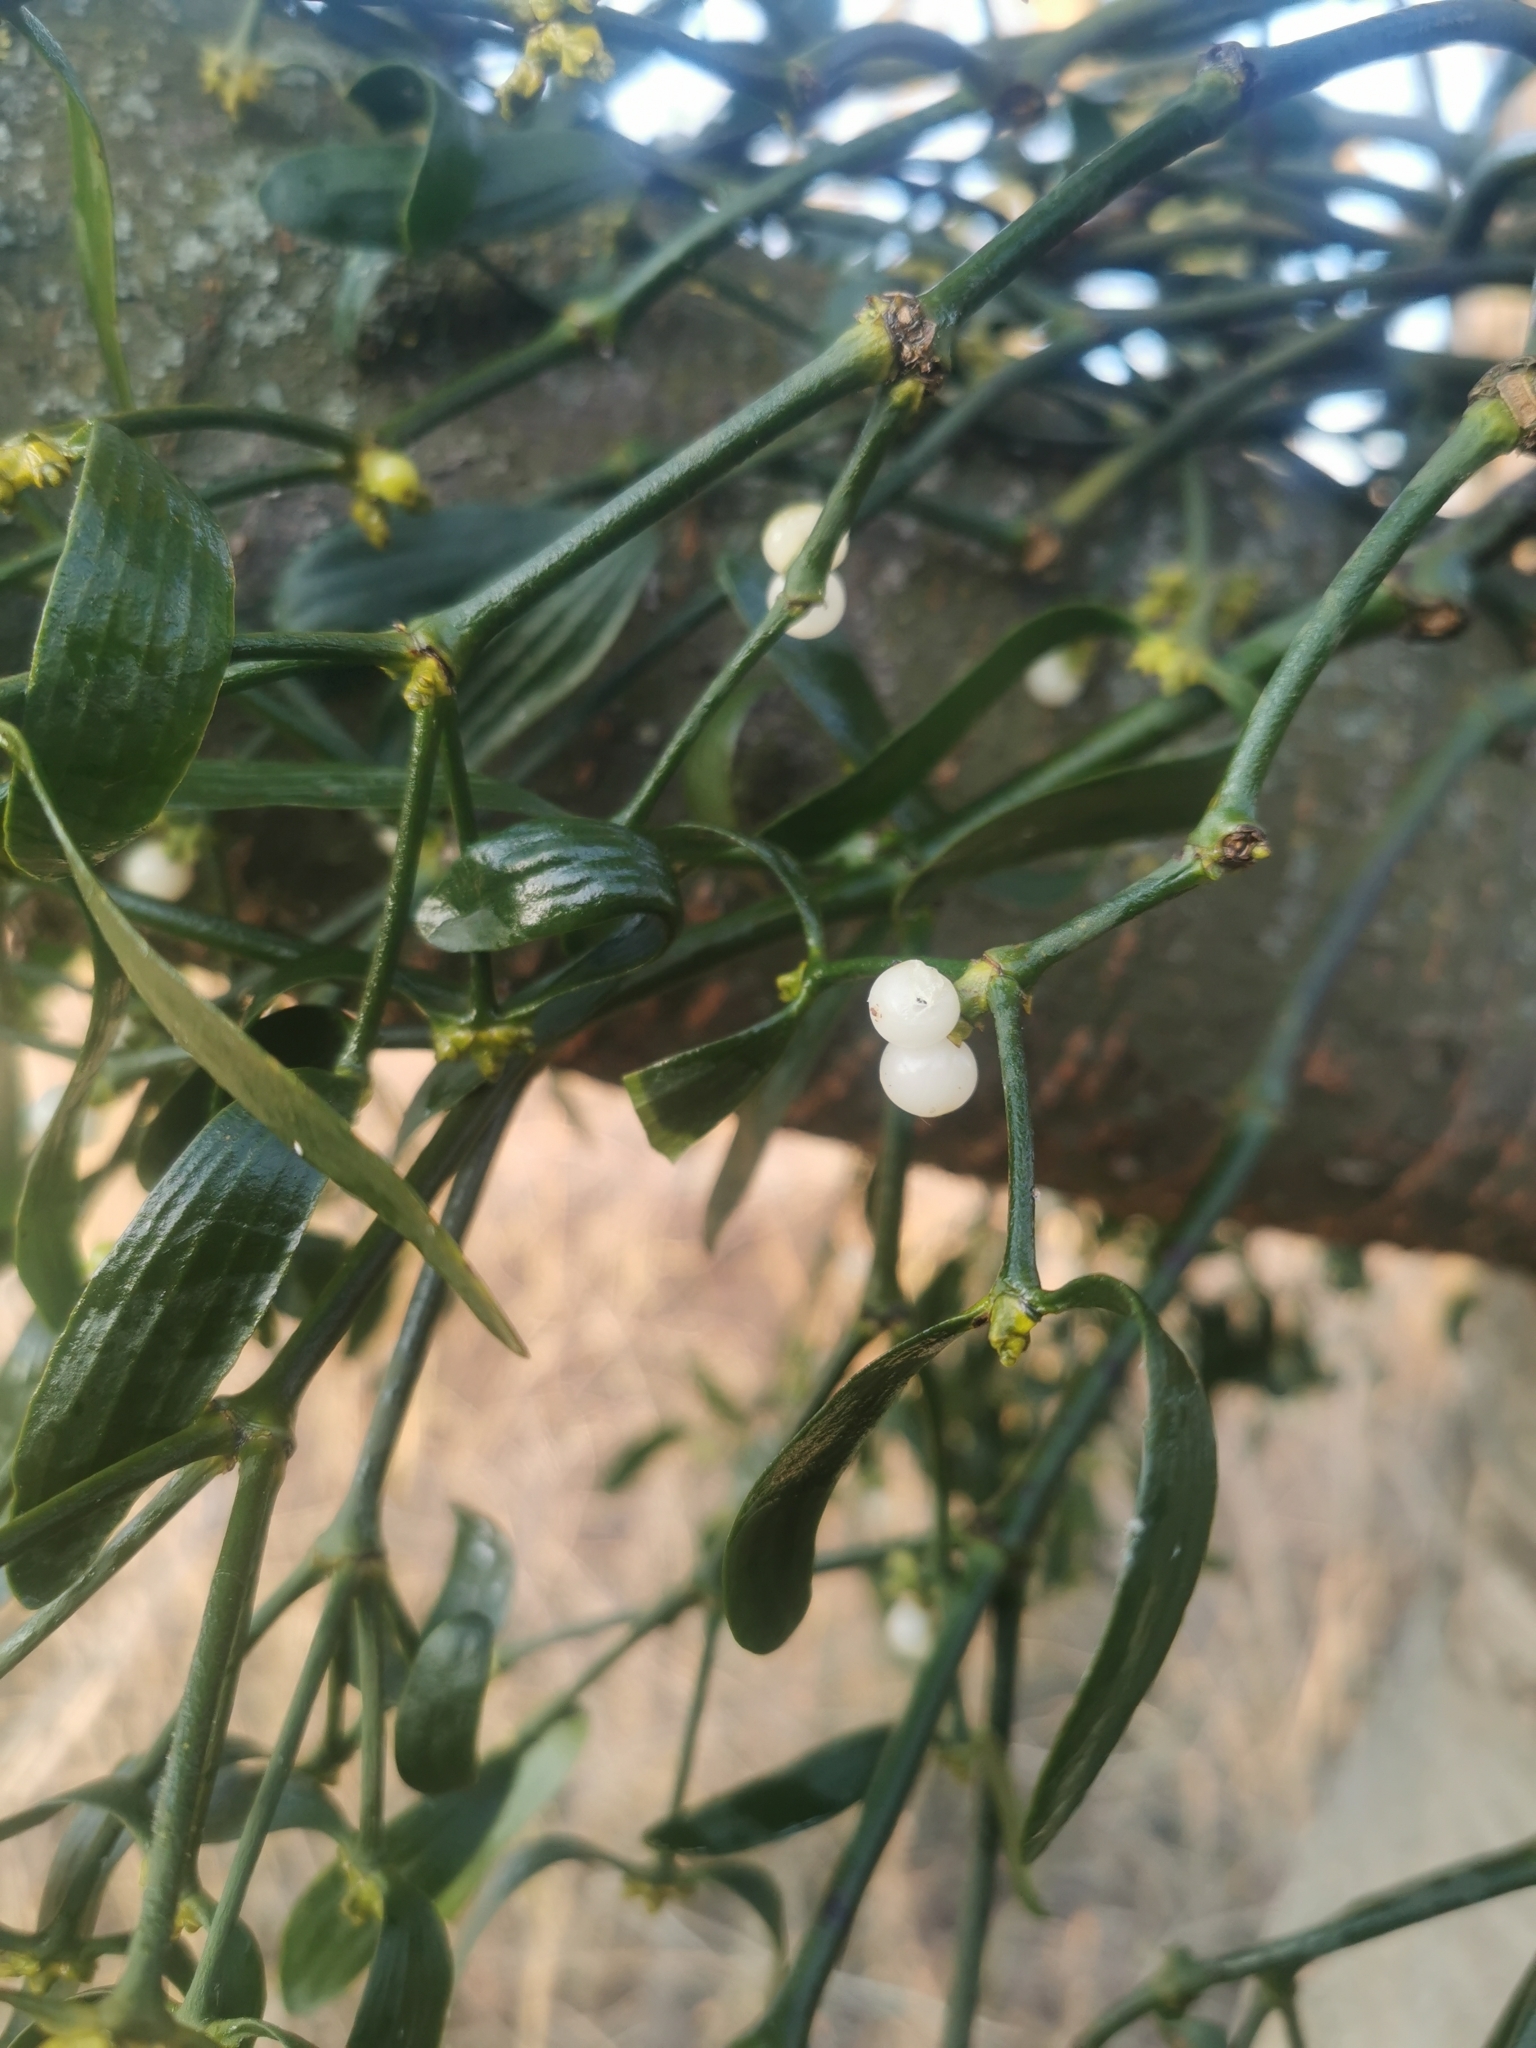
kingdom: Plantae
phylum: Tracheophyta
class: Magnoliopsida
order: Santalales
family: Viscaceae
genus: Viscum
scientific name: Viscum album
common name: Mistletoe
